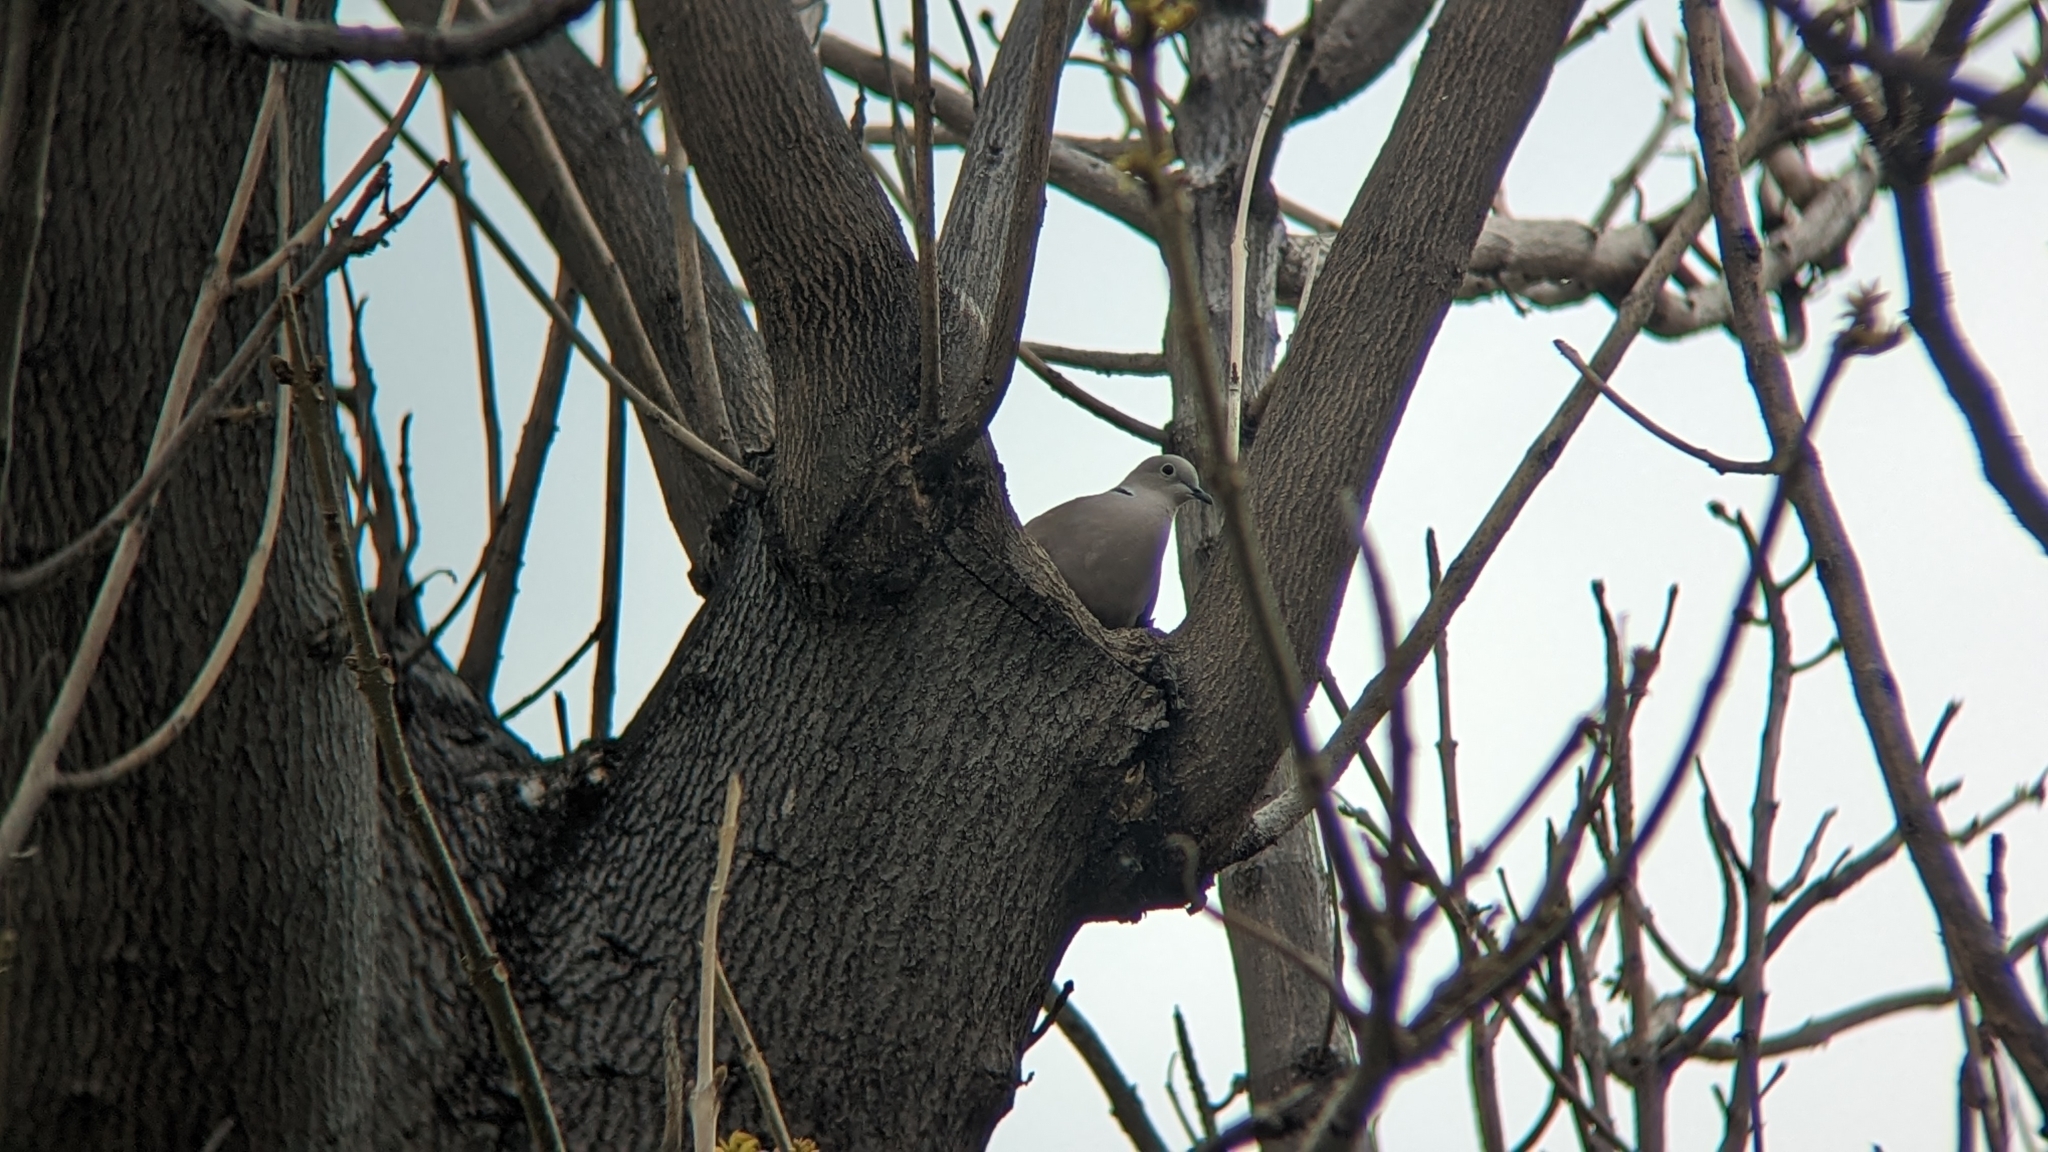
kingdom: Animalia
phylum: Chordata
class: Aves
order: Columbiformes
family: Columbidae
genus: Streptopelia
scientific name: Streptopelia decaocto
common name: Eurasian collared dove
